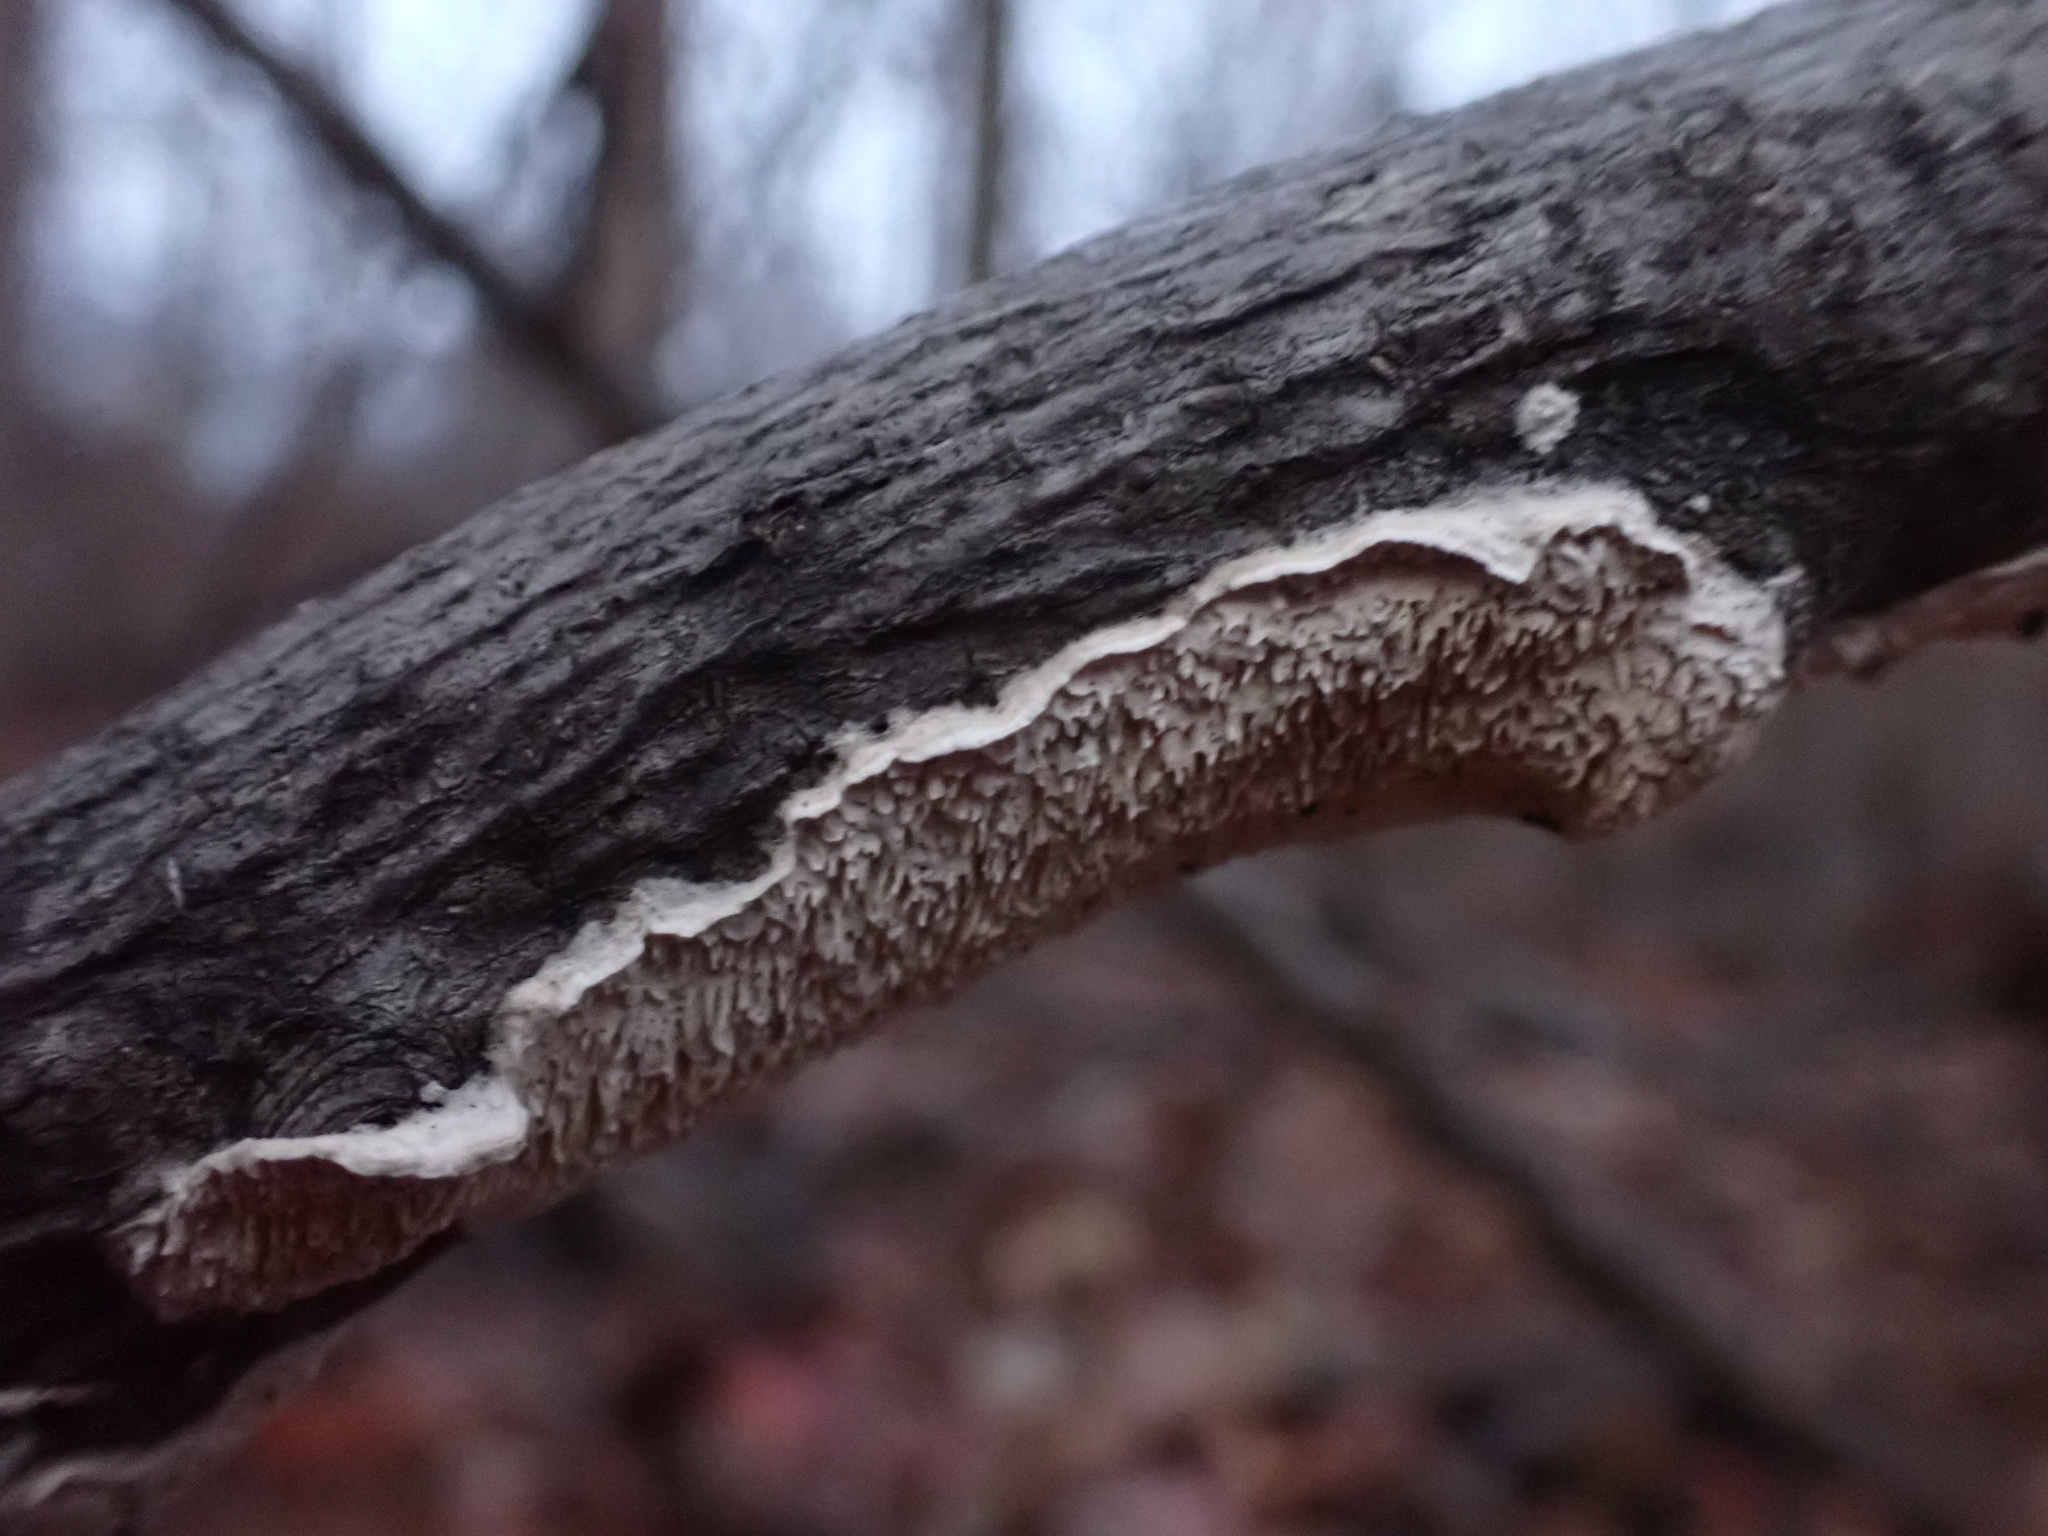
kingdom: Fungi
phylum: Basidiomycota
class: Agaricomycetes
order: Polyporales
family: Irpicaceae
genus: Irpex
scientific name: Irpex lacteus
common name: Milk-white toothed polypore
